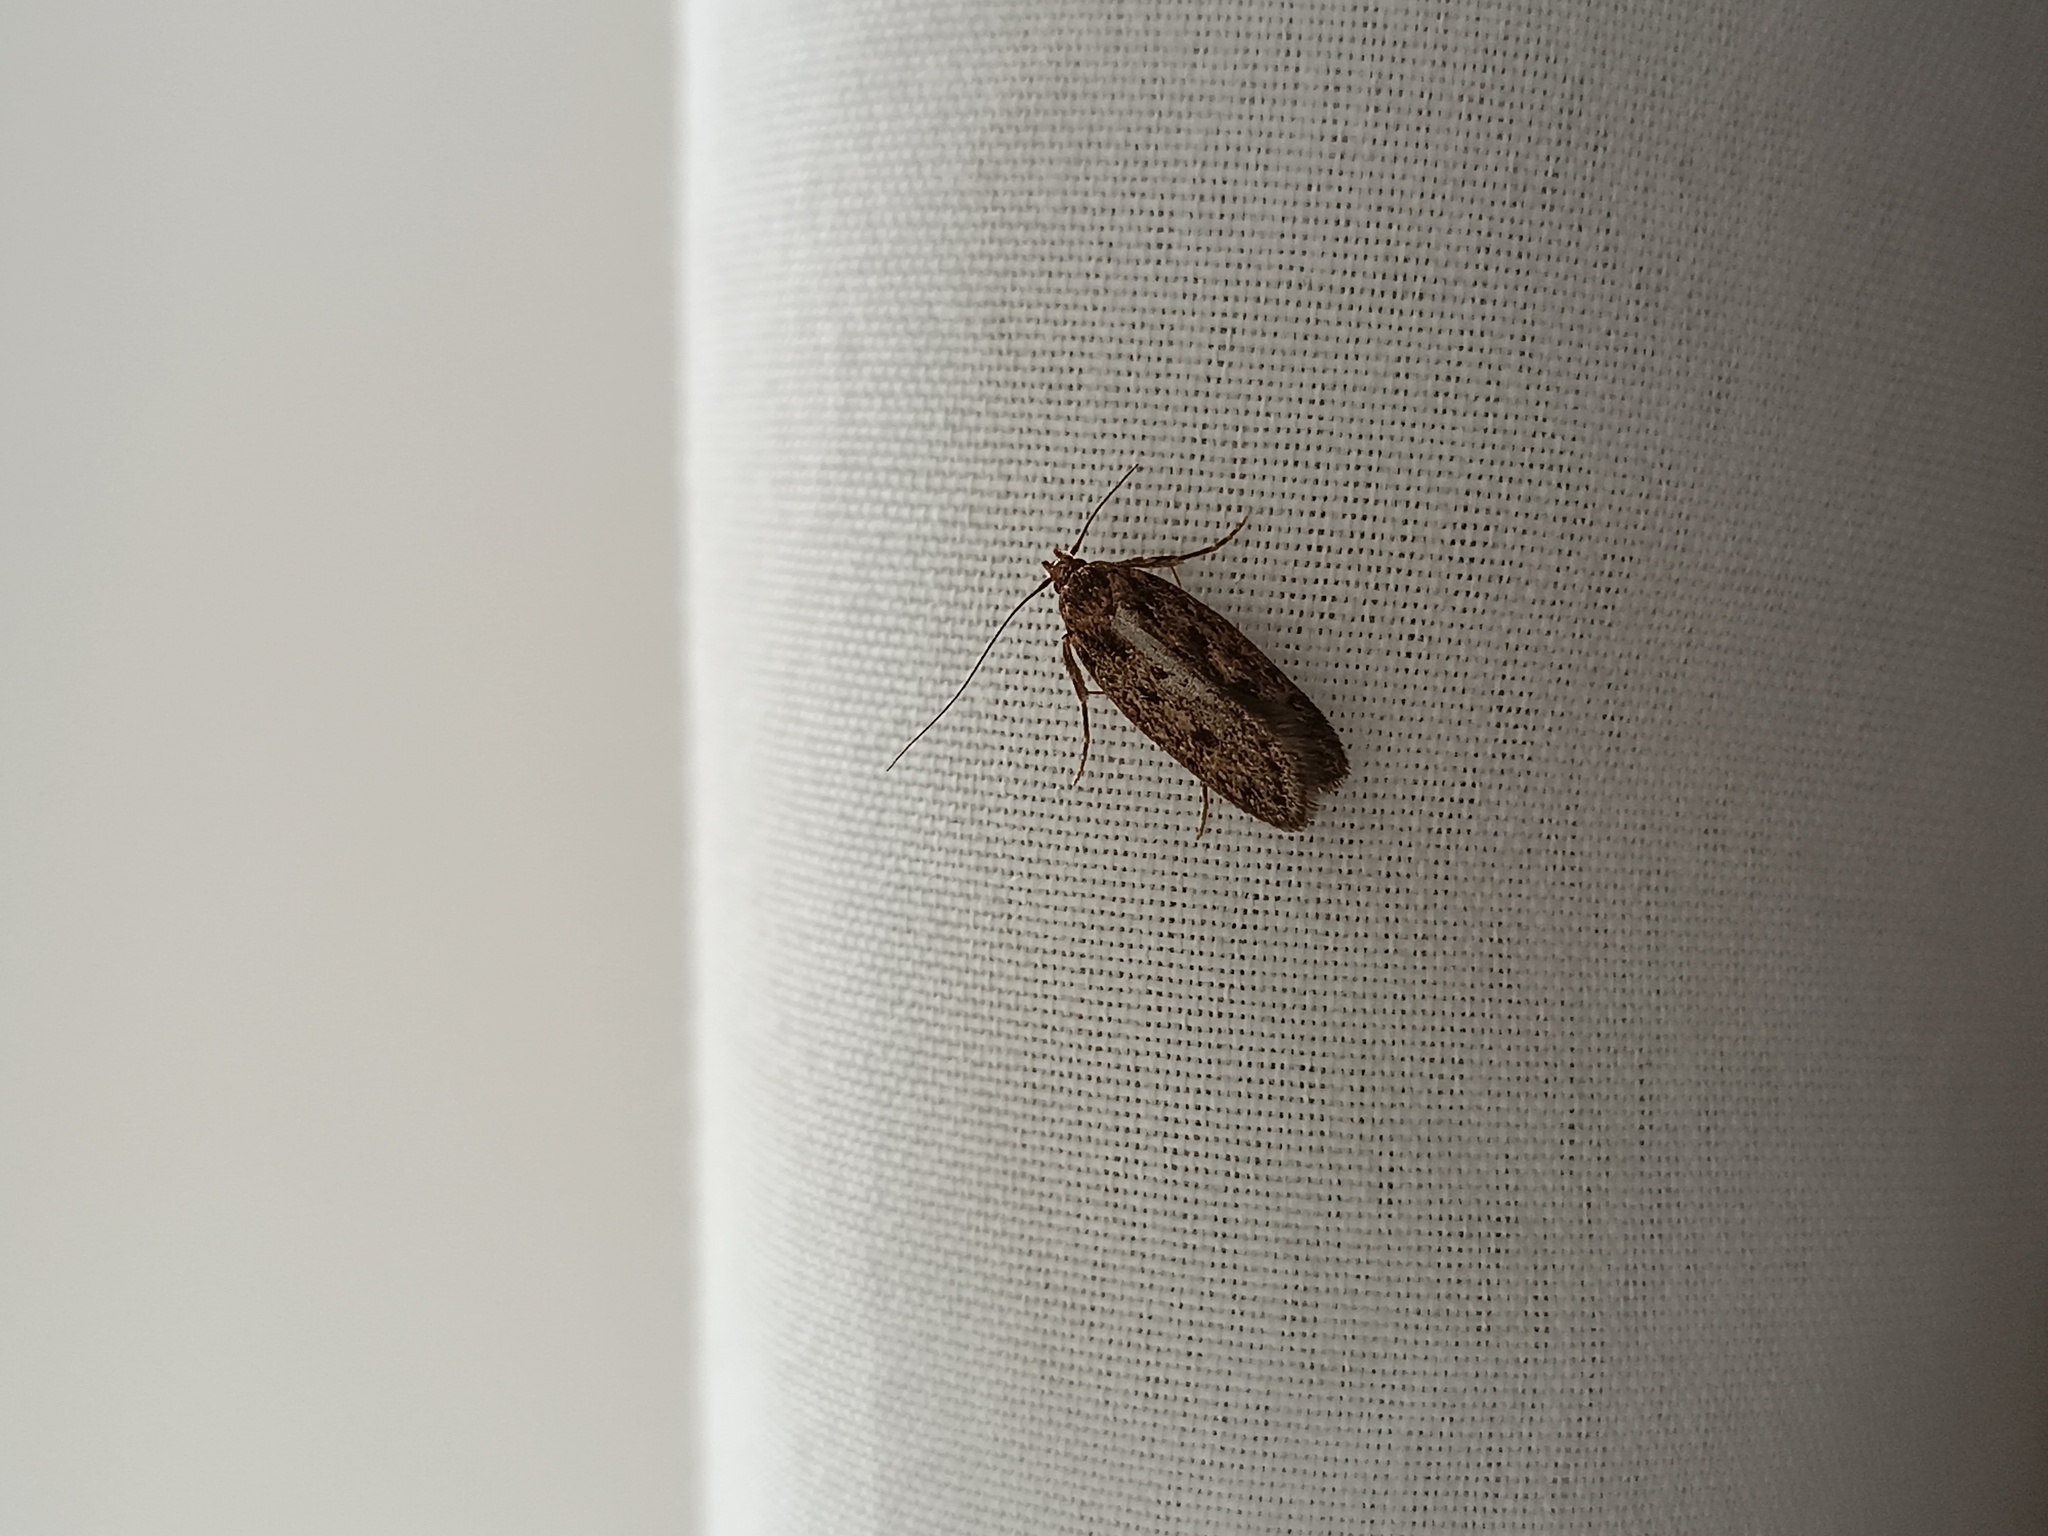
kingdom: Animalia
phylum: Arthropoda
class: Insecta
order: Lepidoptera
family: Oecophoridae
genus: Hofmannophila
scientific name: Hofmannophila pseudospretella
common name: Brown house moth
